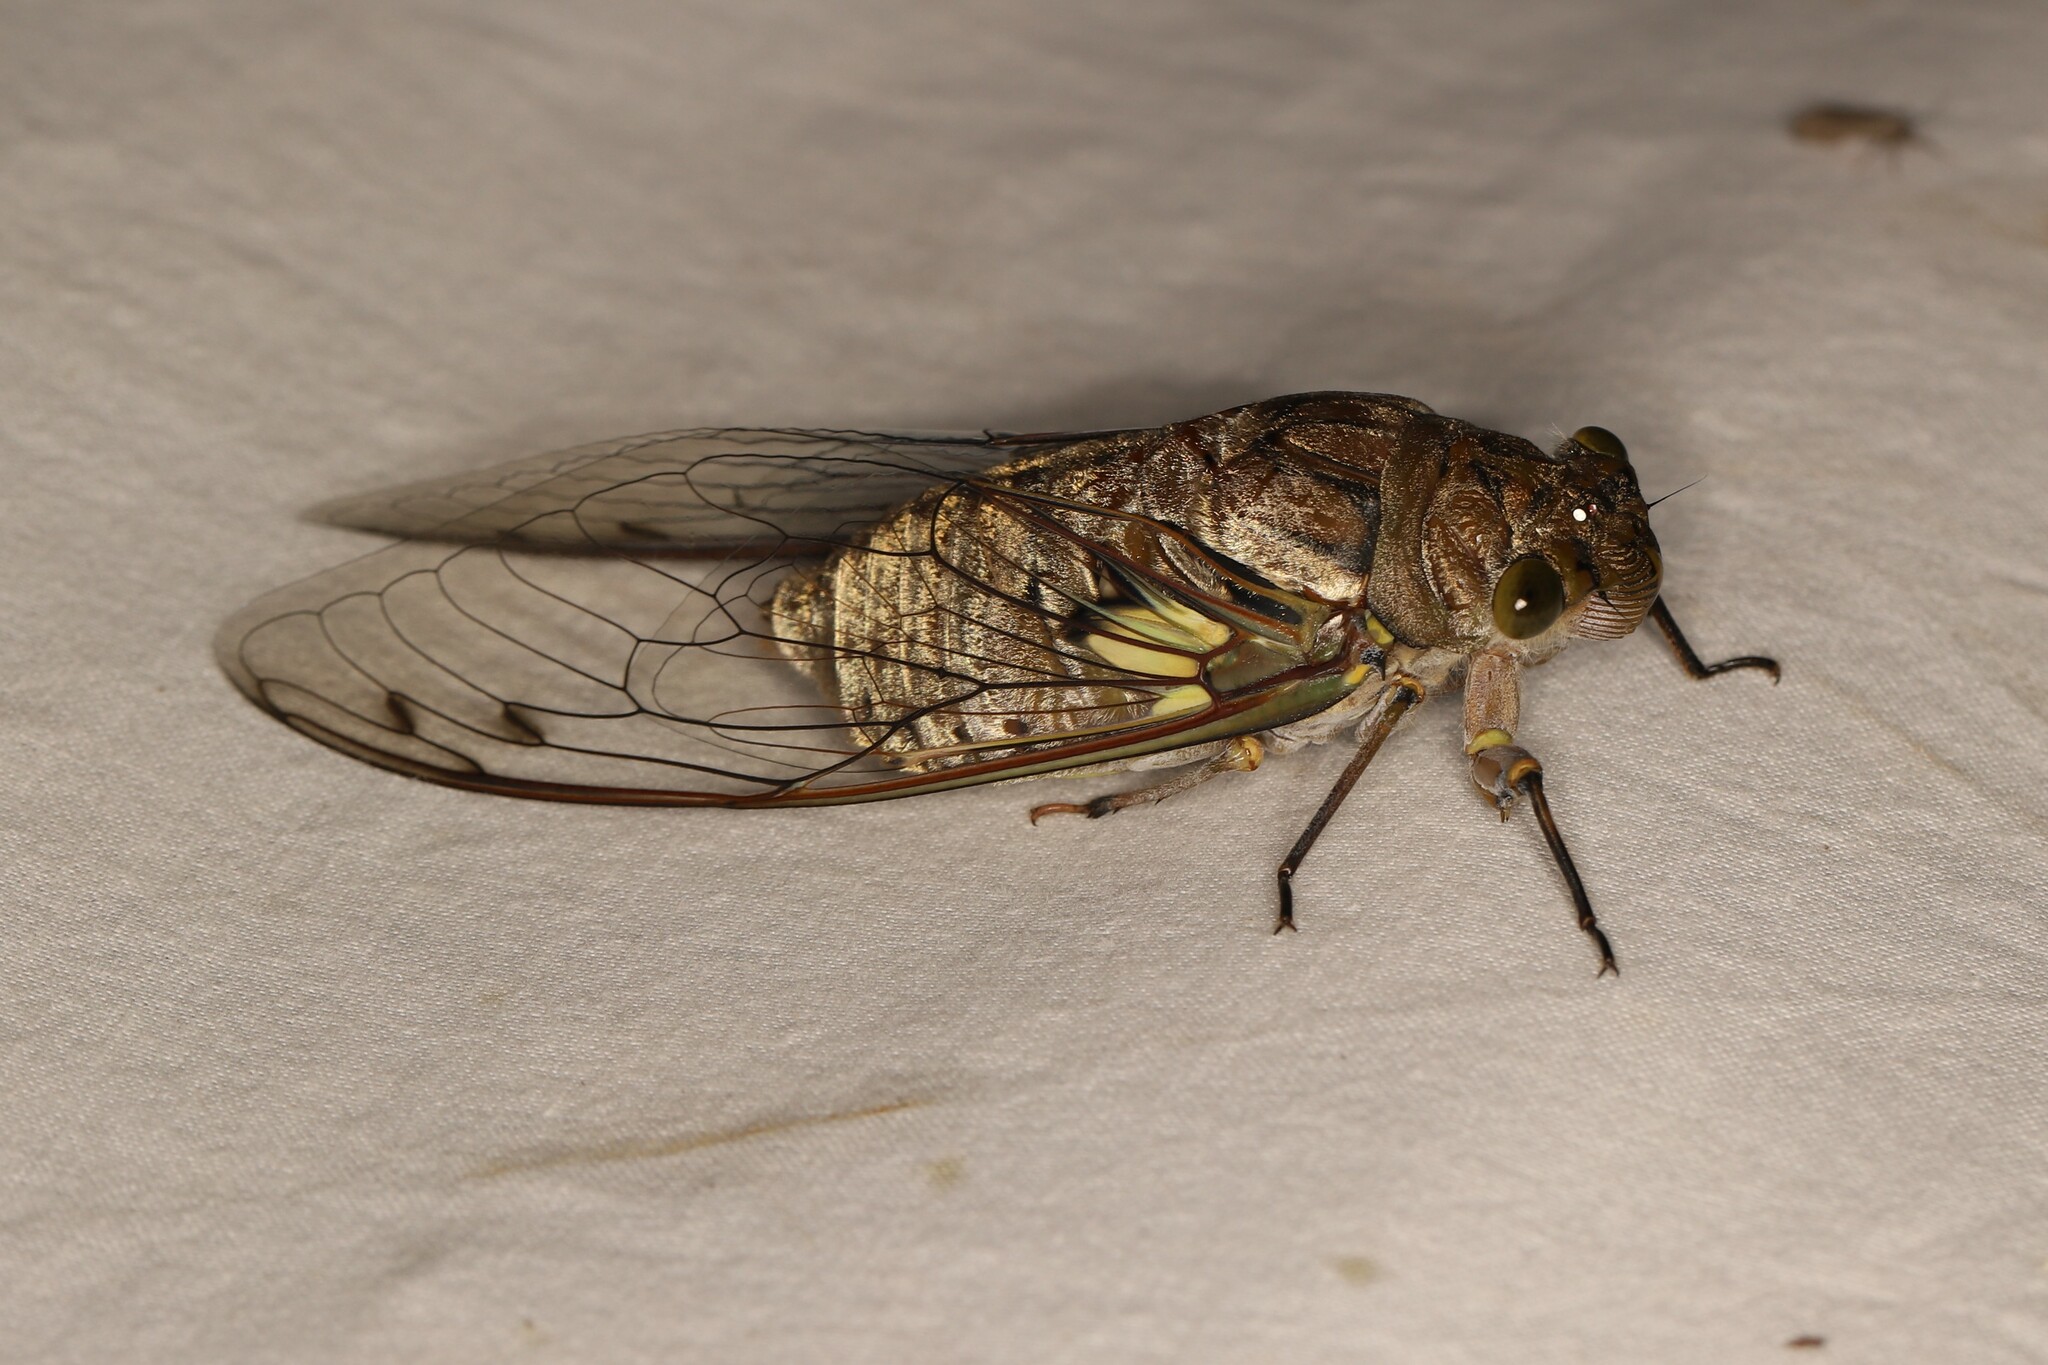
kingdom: Animalia
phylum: Arthropoda
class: Insecta
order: Hemiptera
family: Cicadidae
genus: Quesada
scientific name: Quesada gigas
